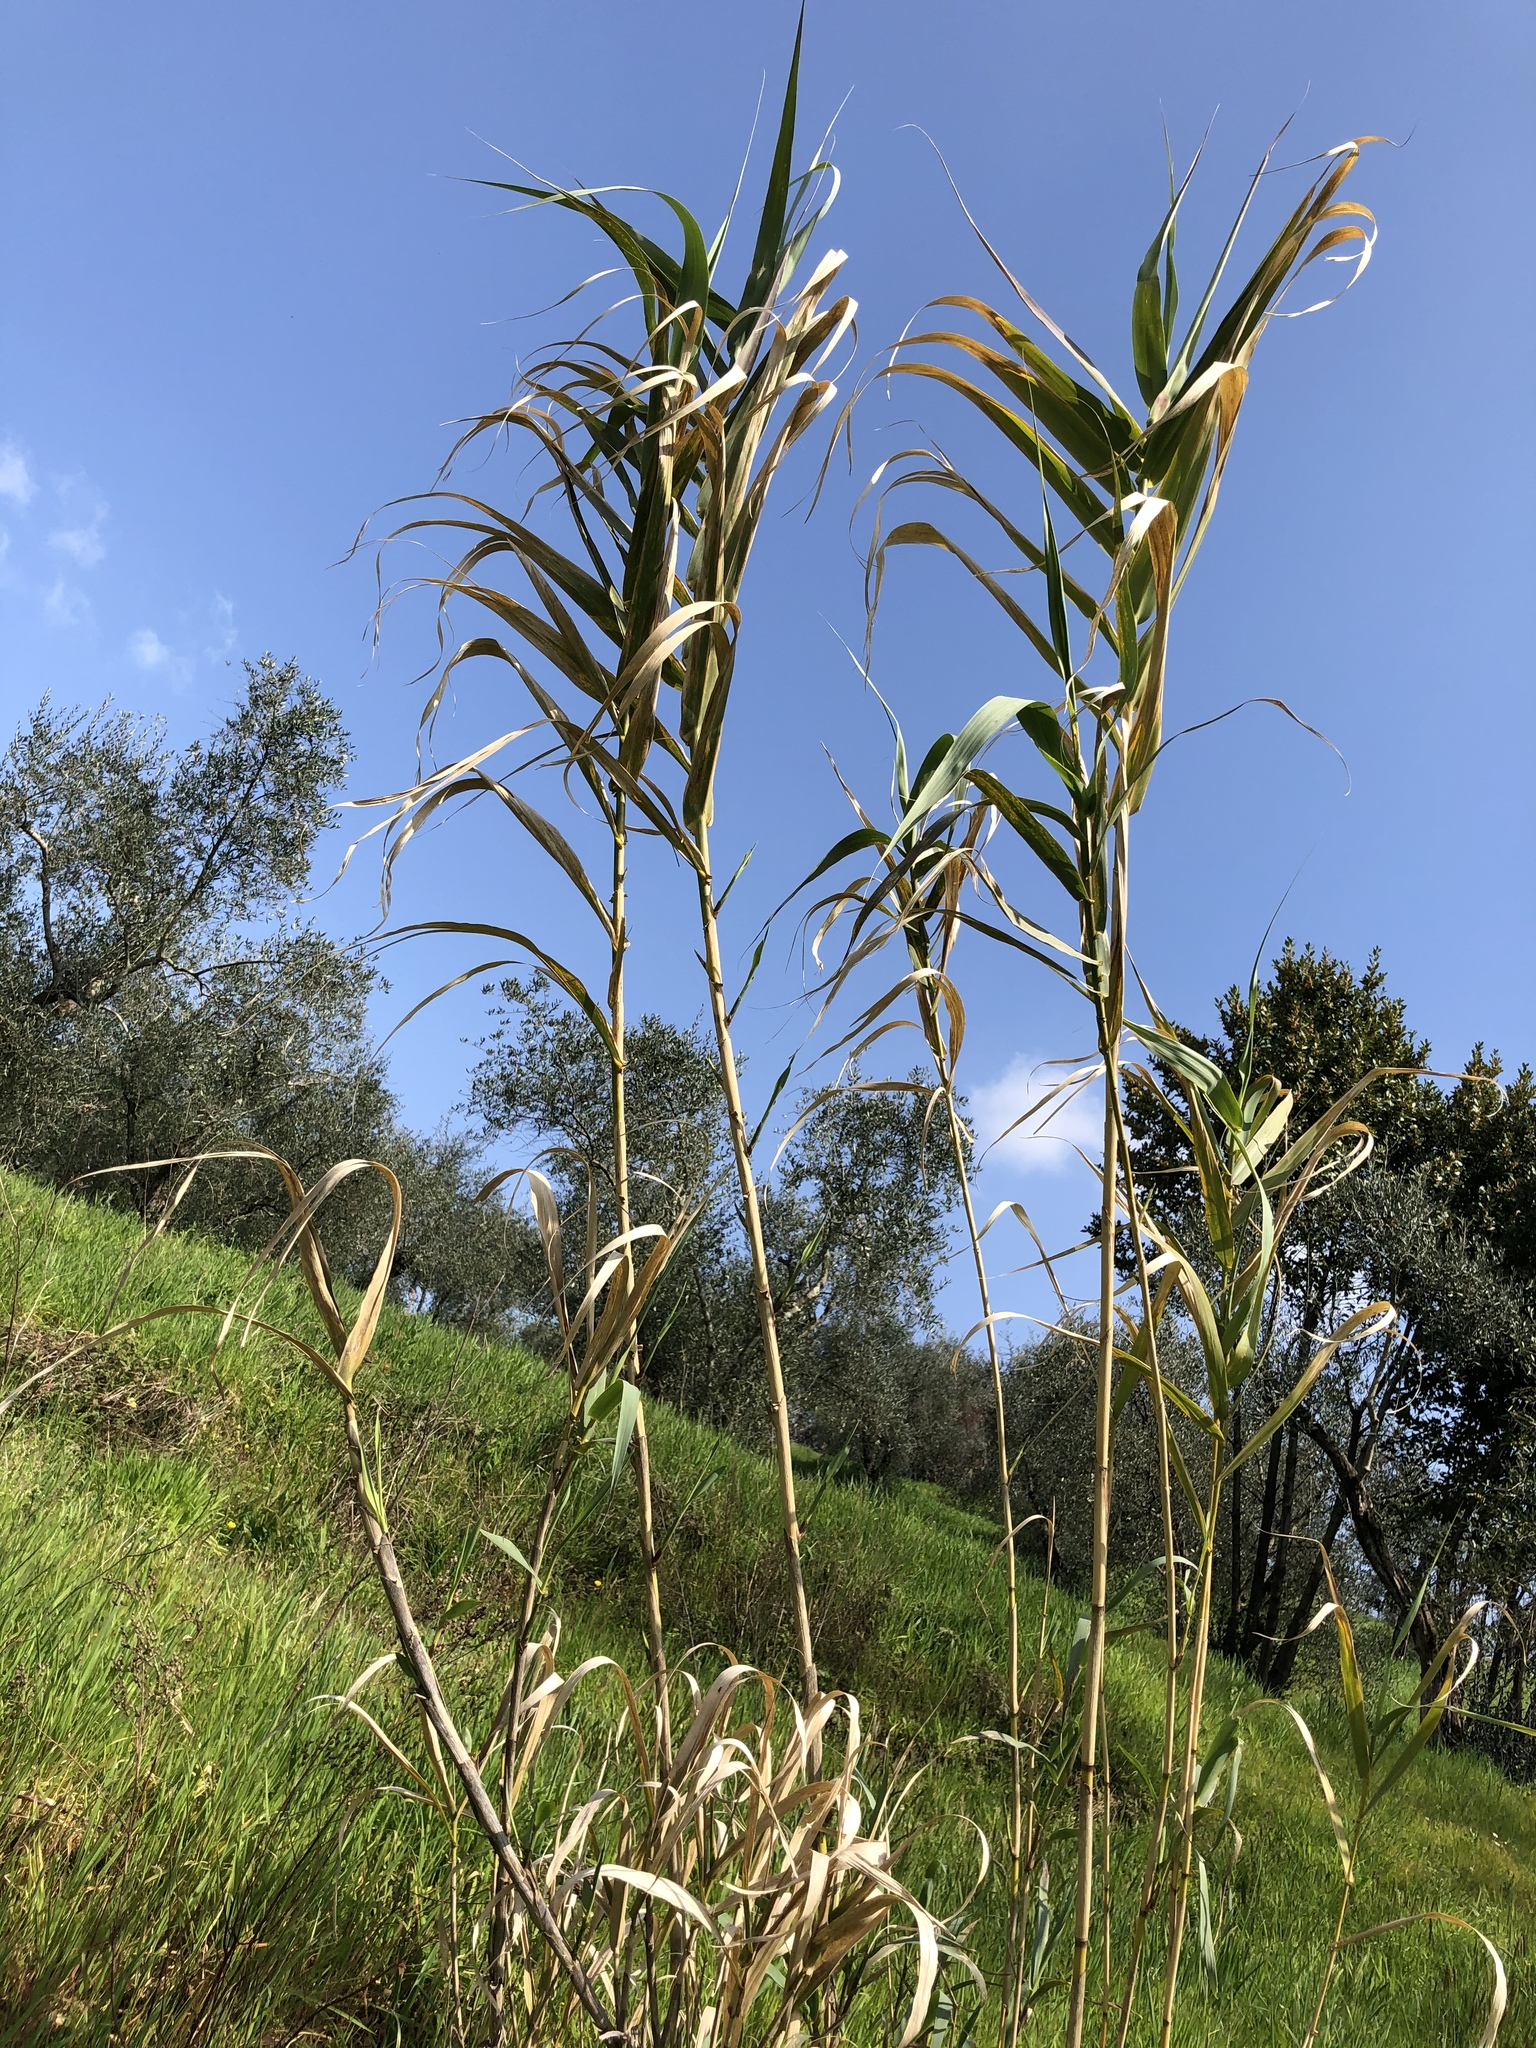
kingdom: Plantae
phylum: Tracheophyta
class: Liliopsida
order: Poales
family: Poaceae
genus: Arundo
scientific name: Arundo donax
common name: Giant reed
